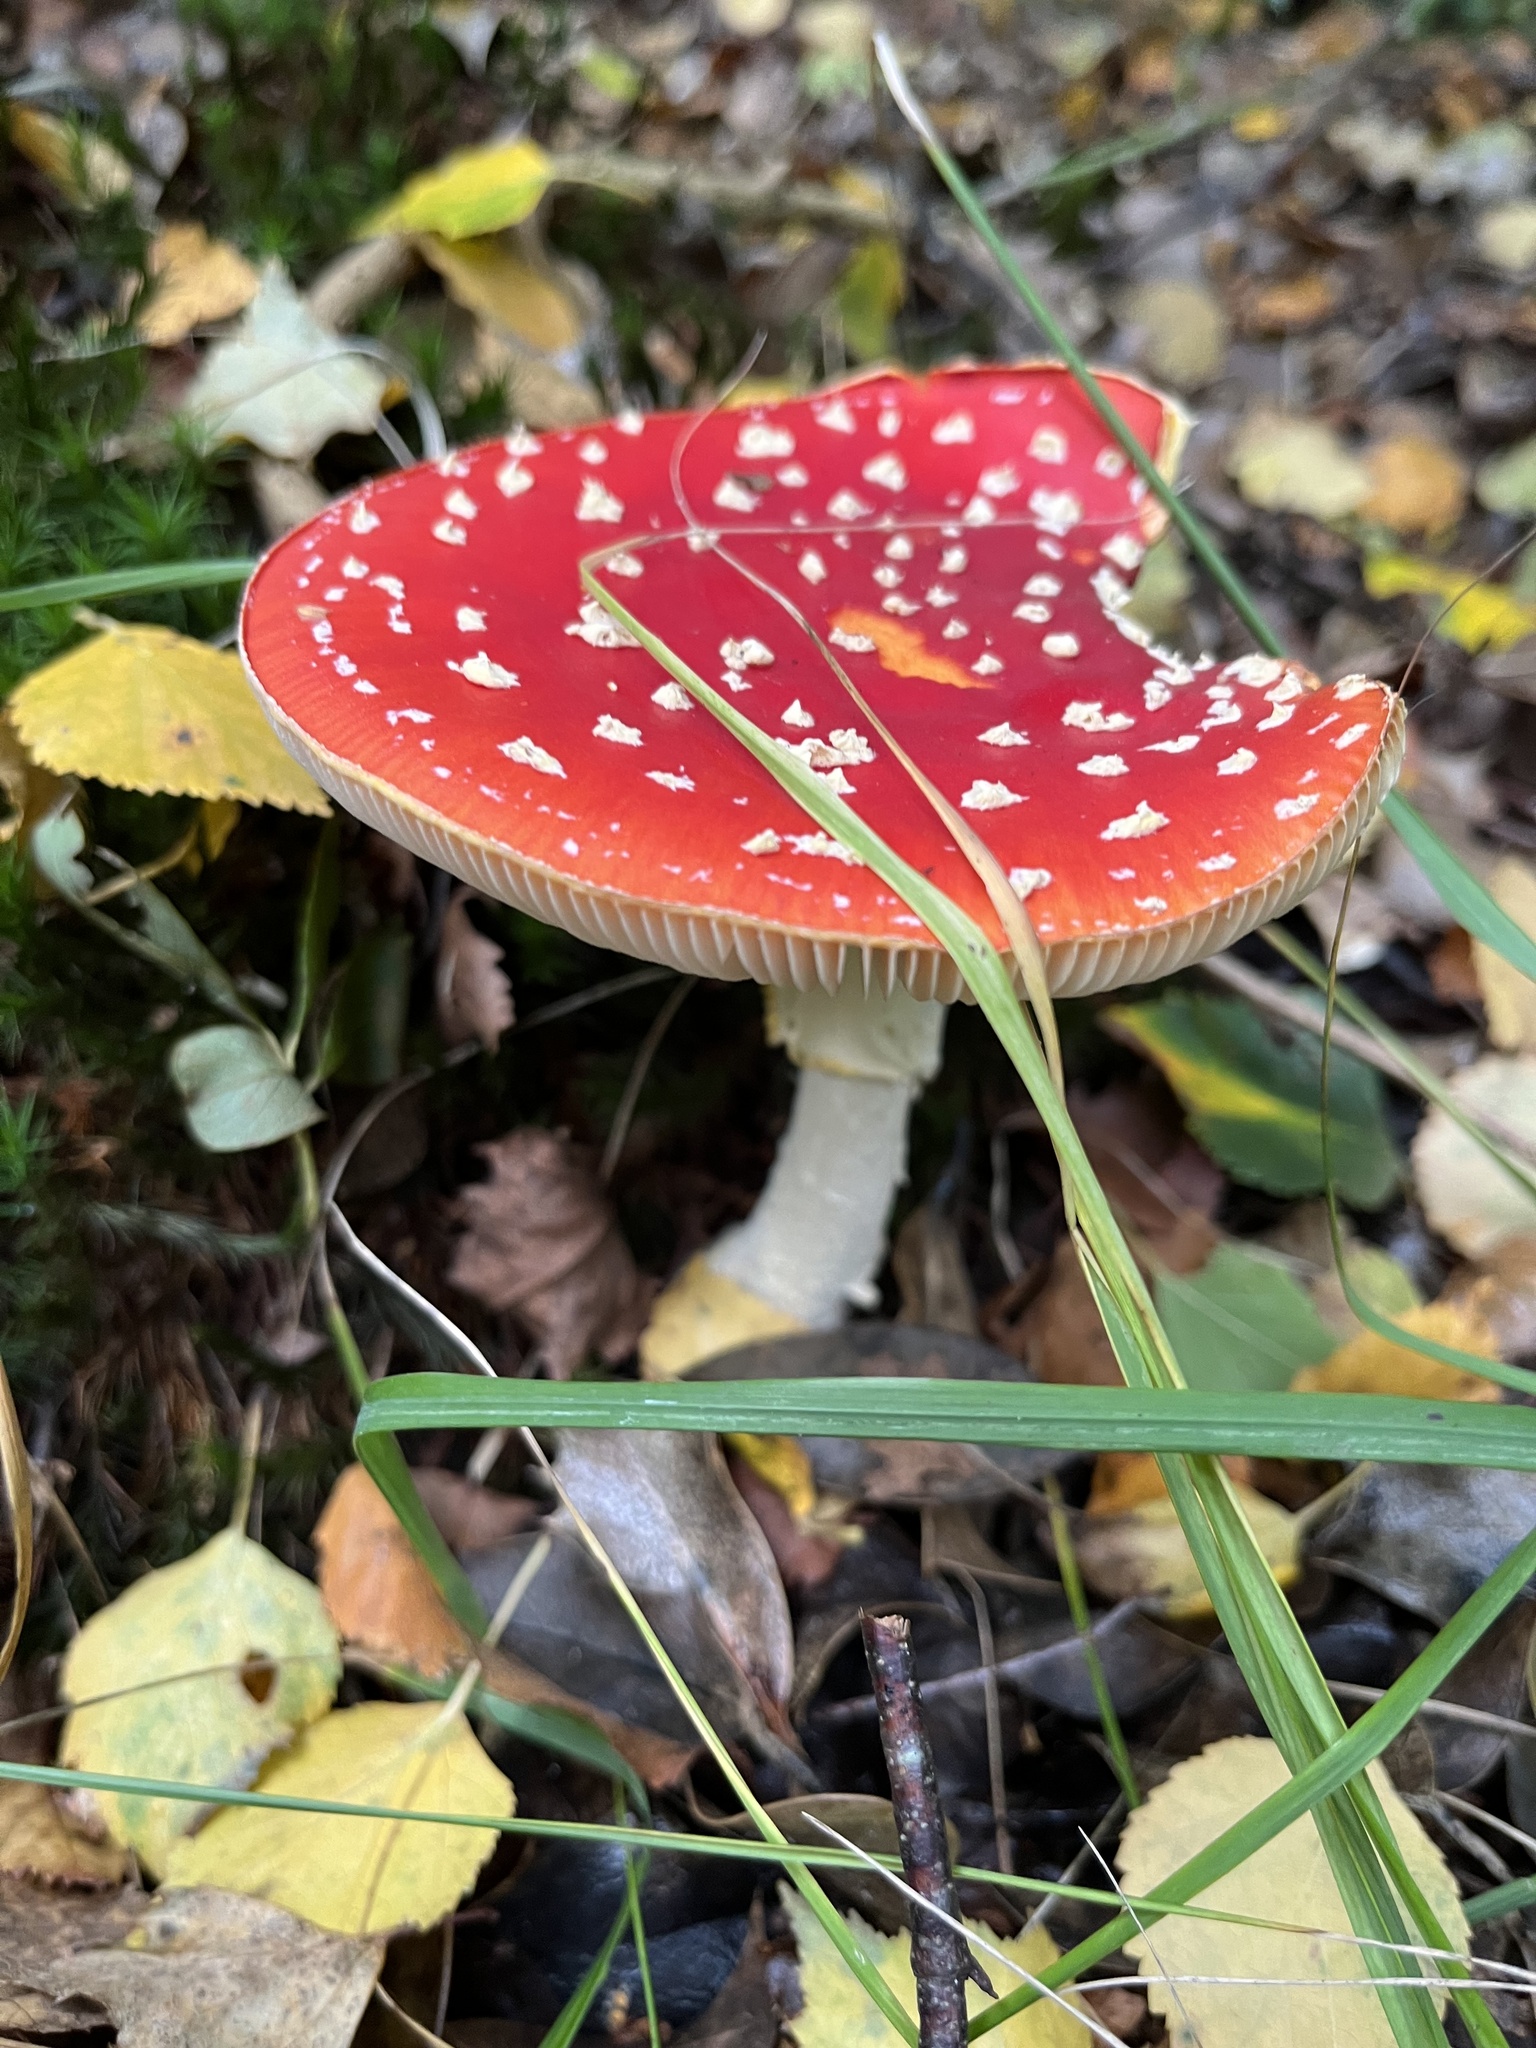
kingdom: Fungi
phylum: Basidiomycota
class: Agaricomycetes
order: Agaricales
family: Amanitaceae
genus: Amanita
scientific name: Amanita muscaria
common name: Fly agaric
